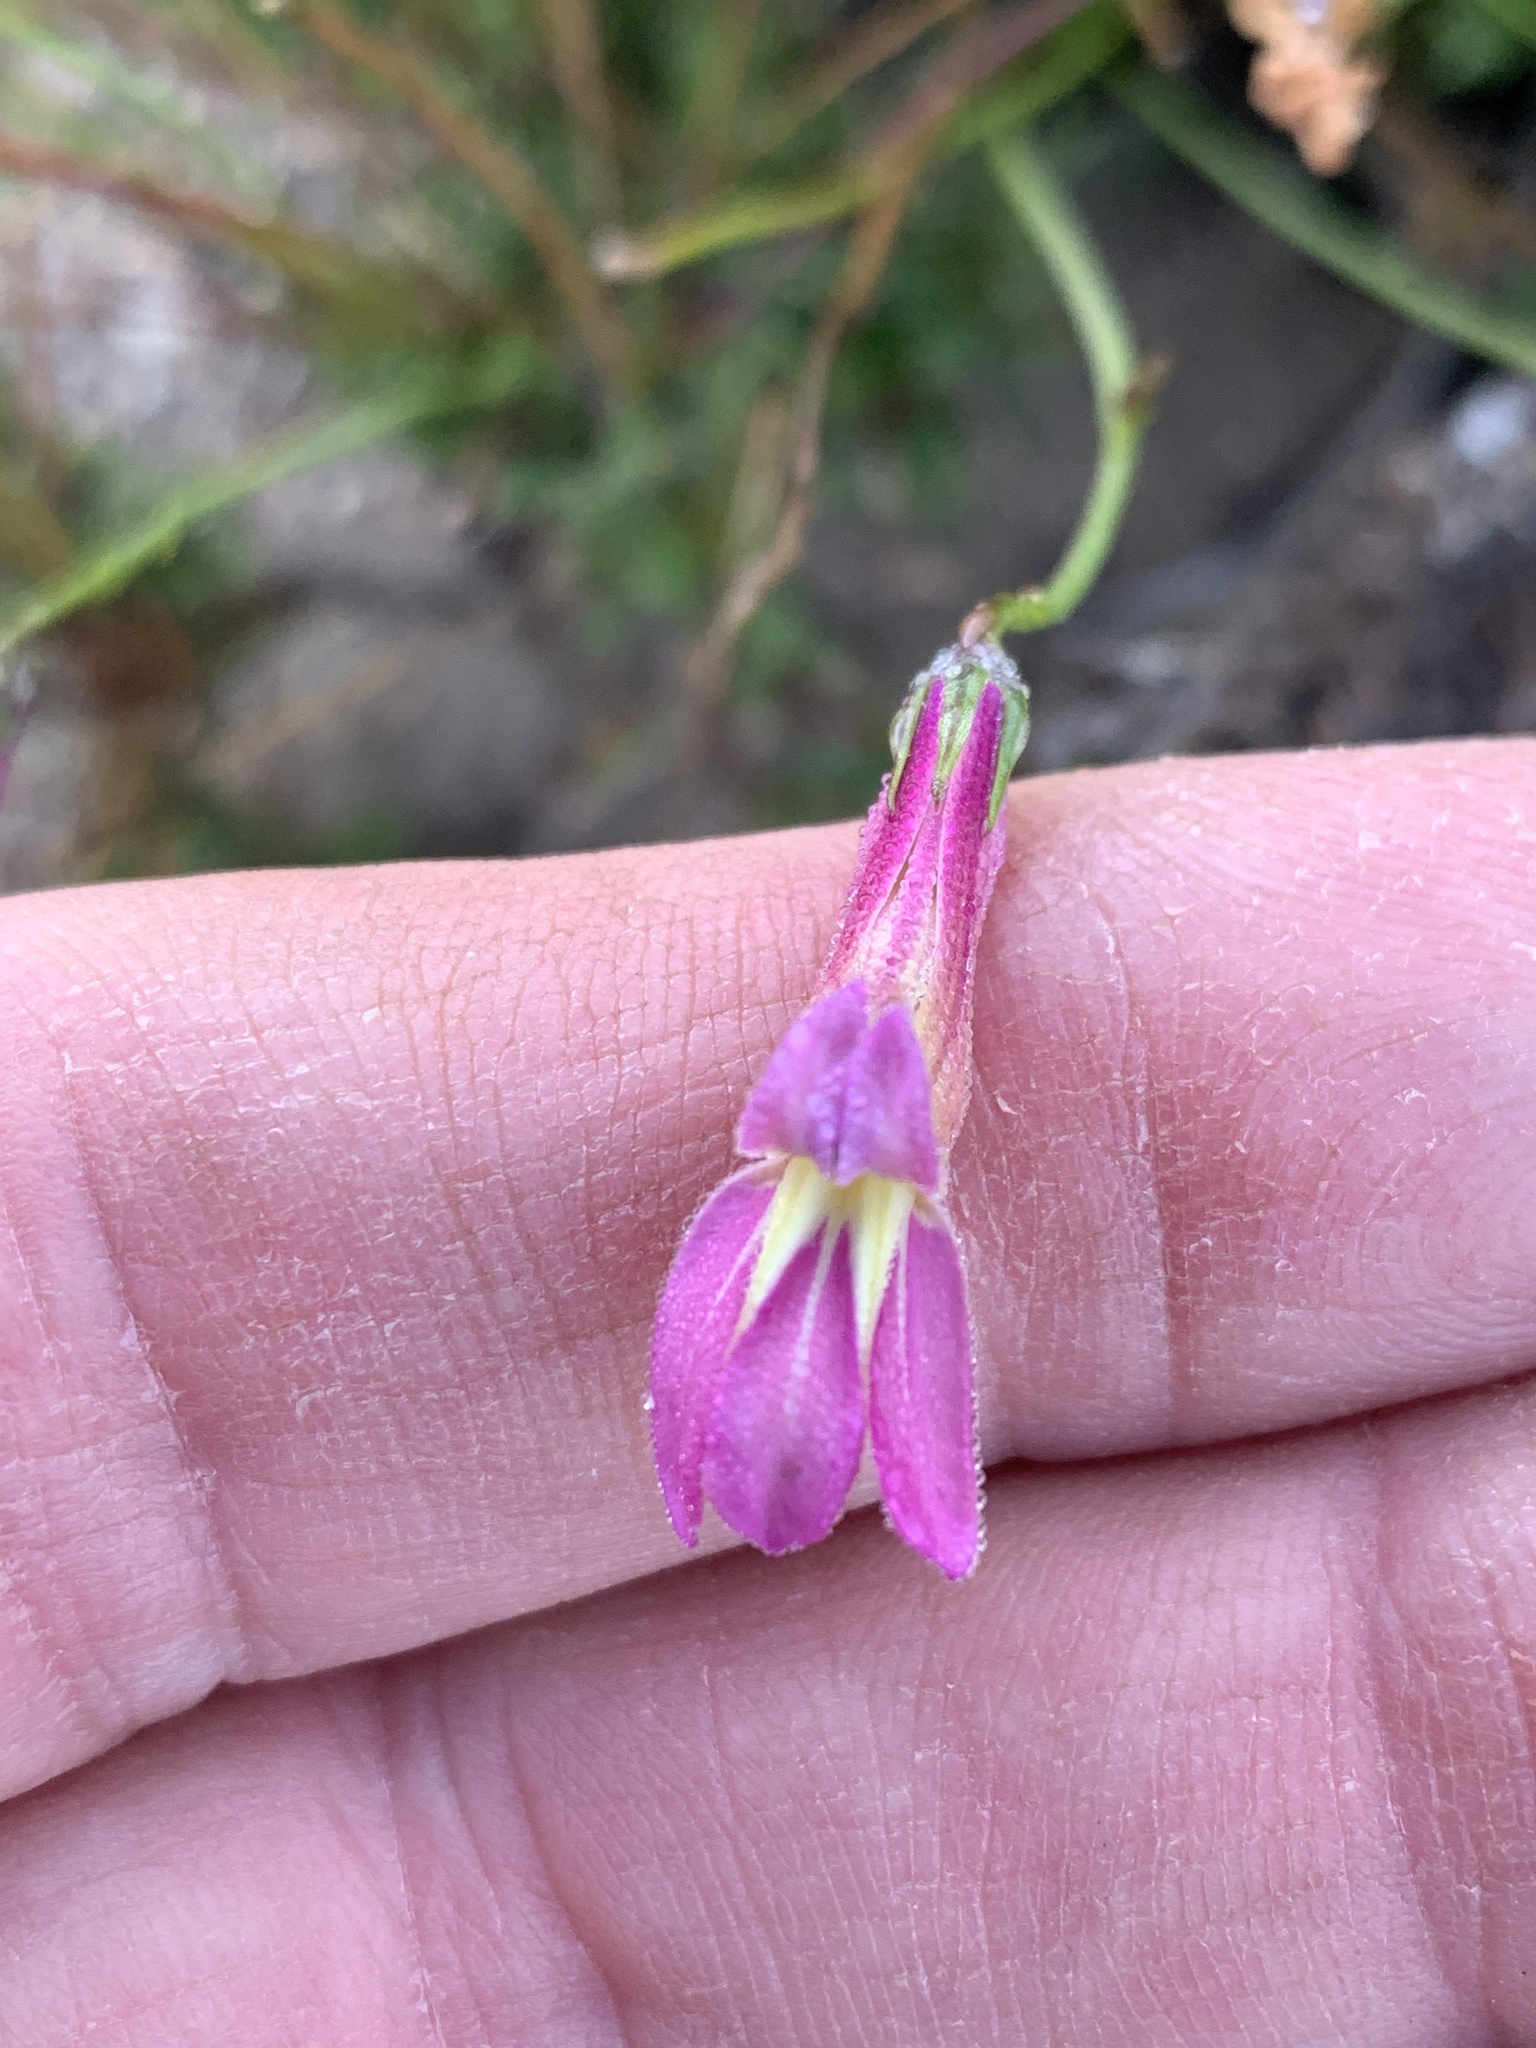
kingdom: Plantae
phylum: Tracheophyta
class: Magnoliopsida
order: Asterales
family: Campanulaceae
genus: Lobelia
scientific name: Lobelia coronopifolia
